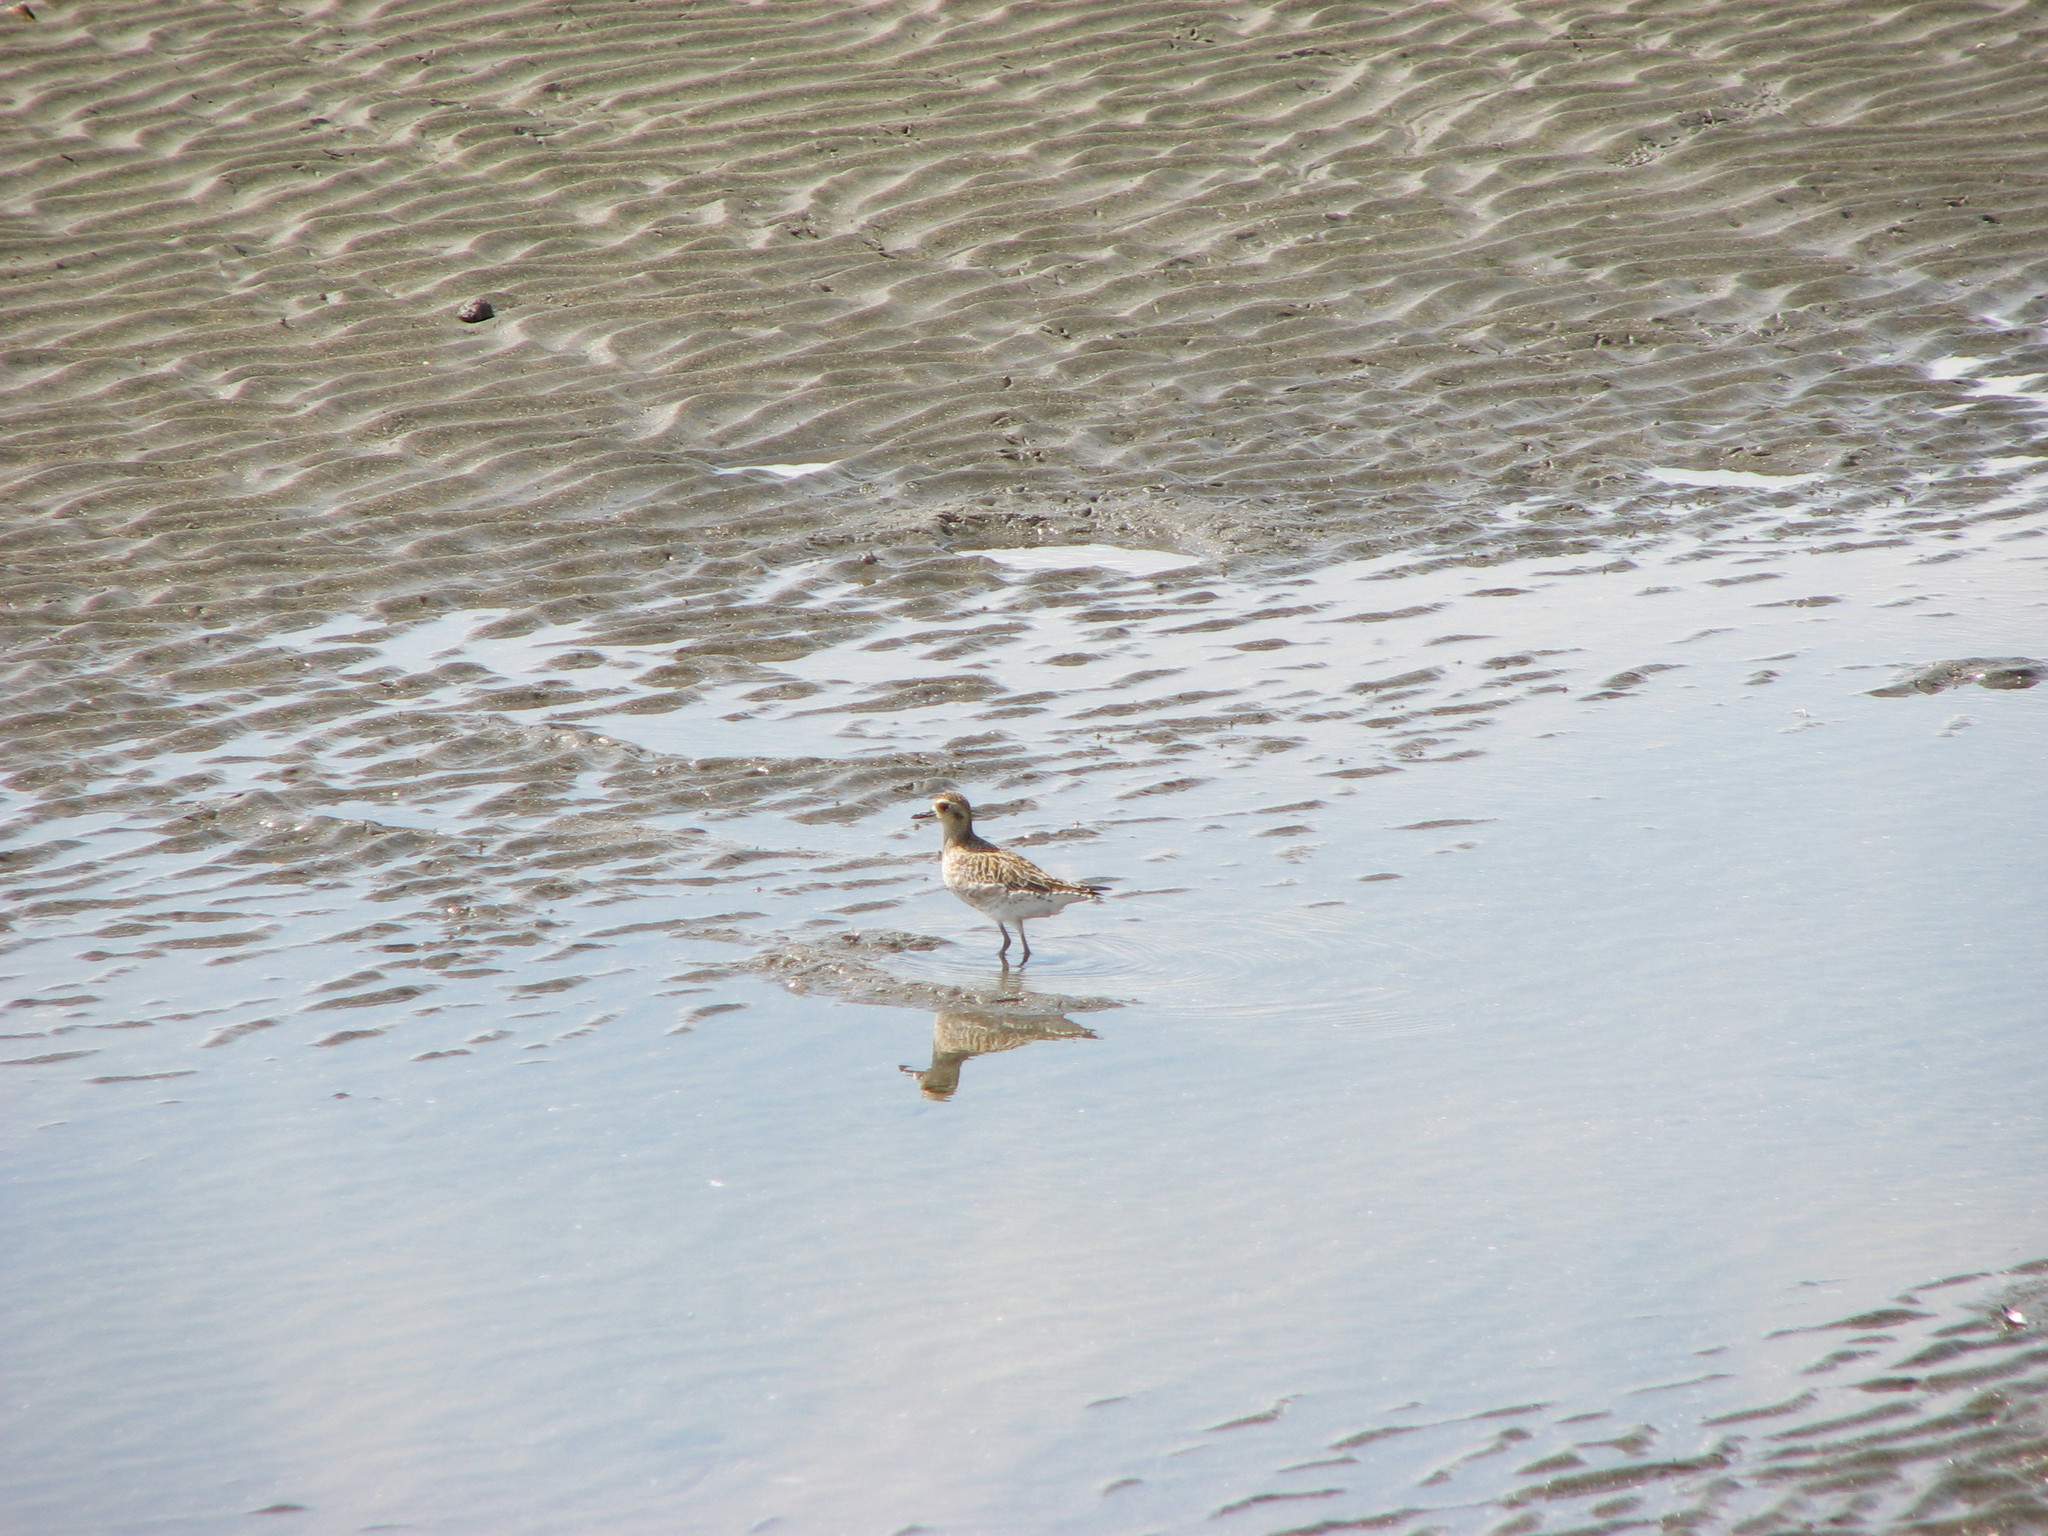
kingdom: Animalia
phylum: Chordata
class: Aves
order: Charadriiformes
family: Charadriidae
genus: Pluvialis
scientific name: Pluvialis fulva
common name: Pacific golden plover
